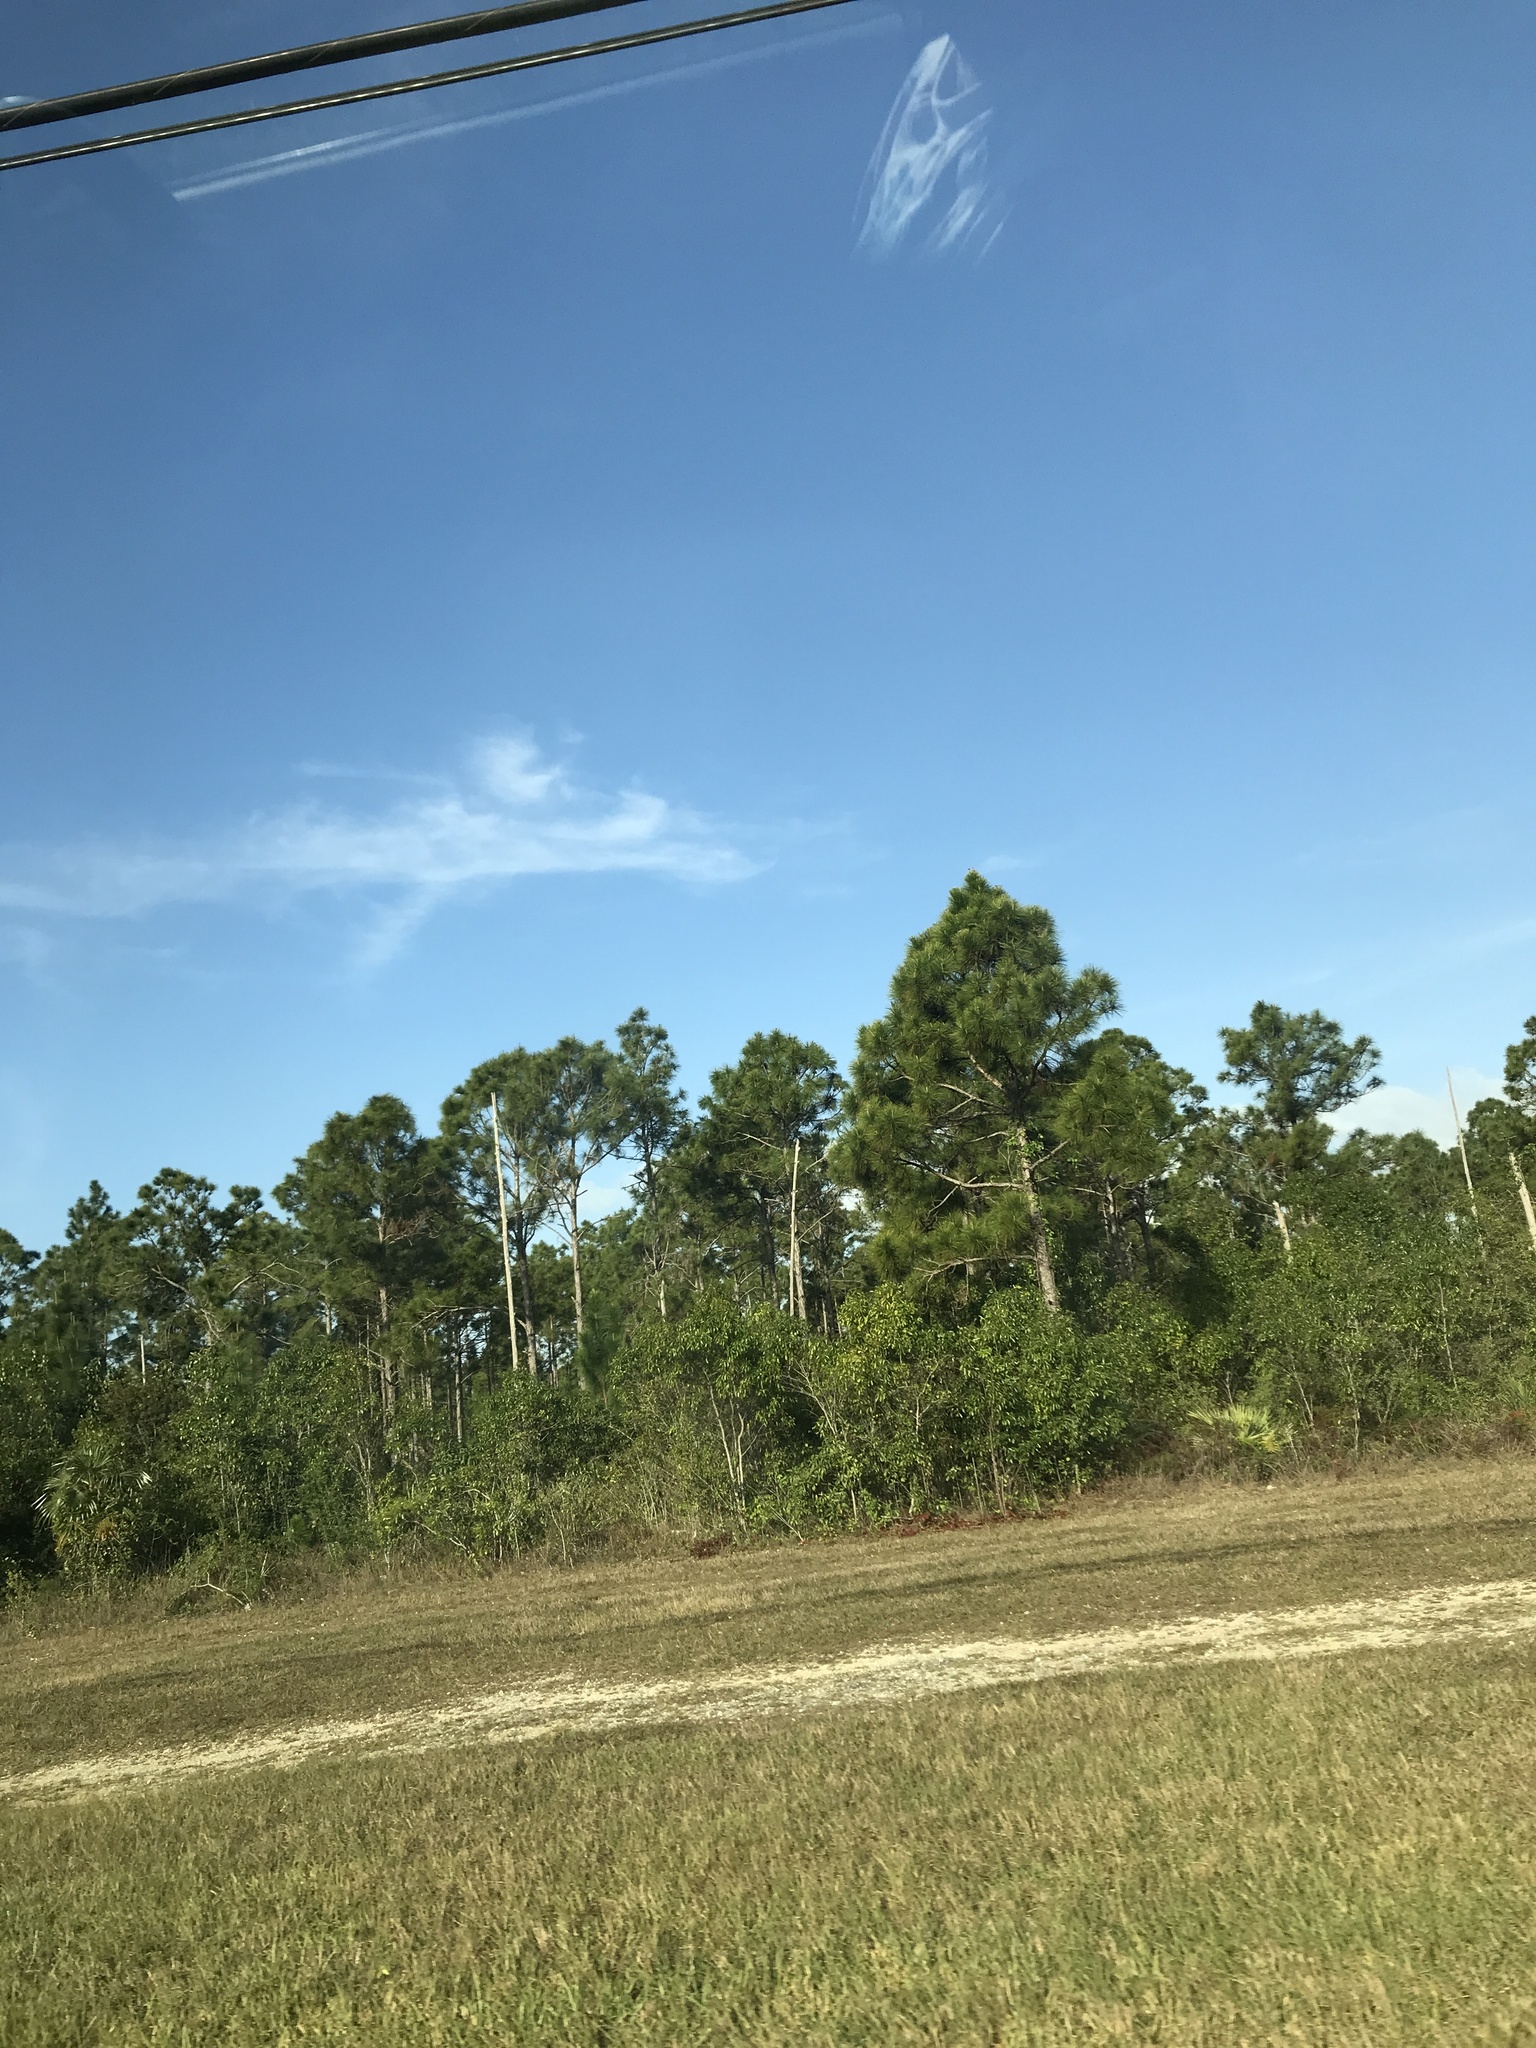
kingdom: Plantae
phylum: Tracheophyta
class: Pinopsida
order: Pinales
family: Pinaceae
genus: Pinus
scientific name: Pinus elliottii
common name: Slash pine
